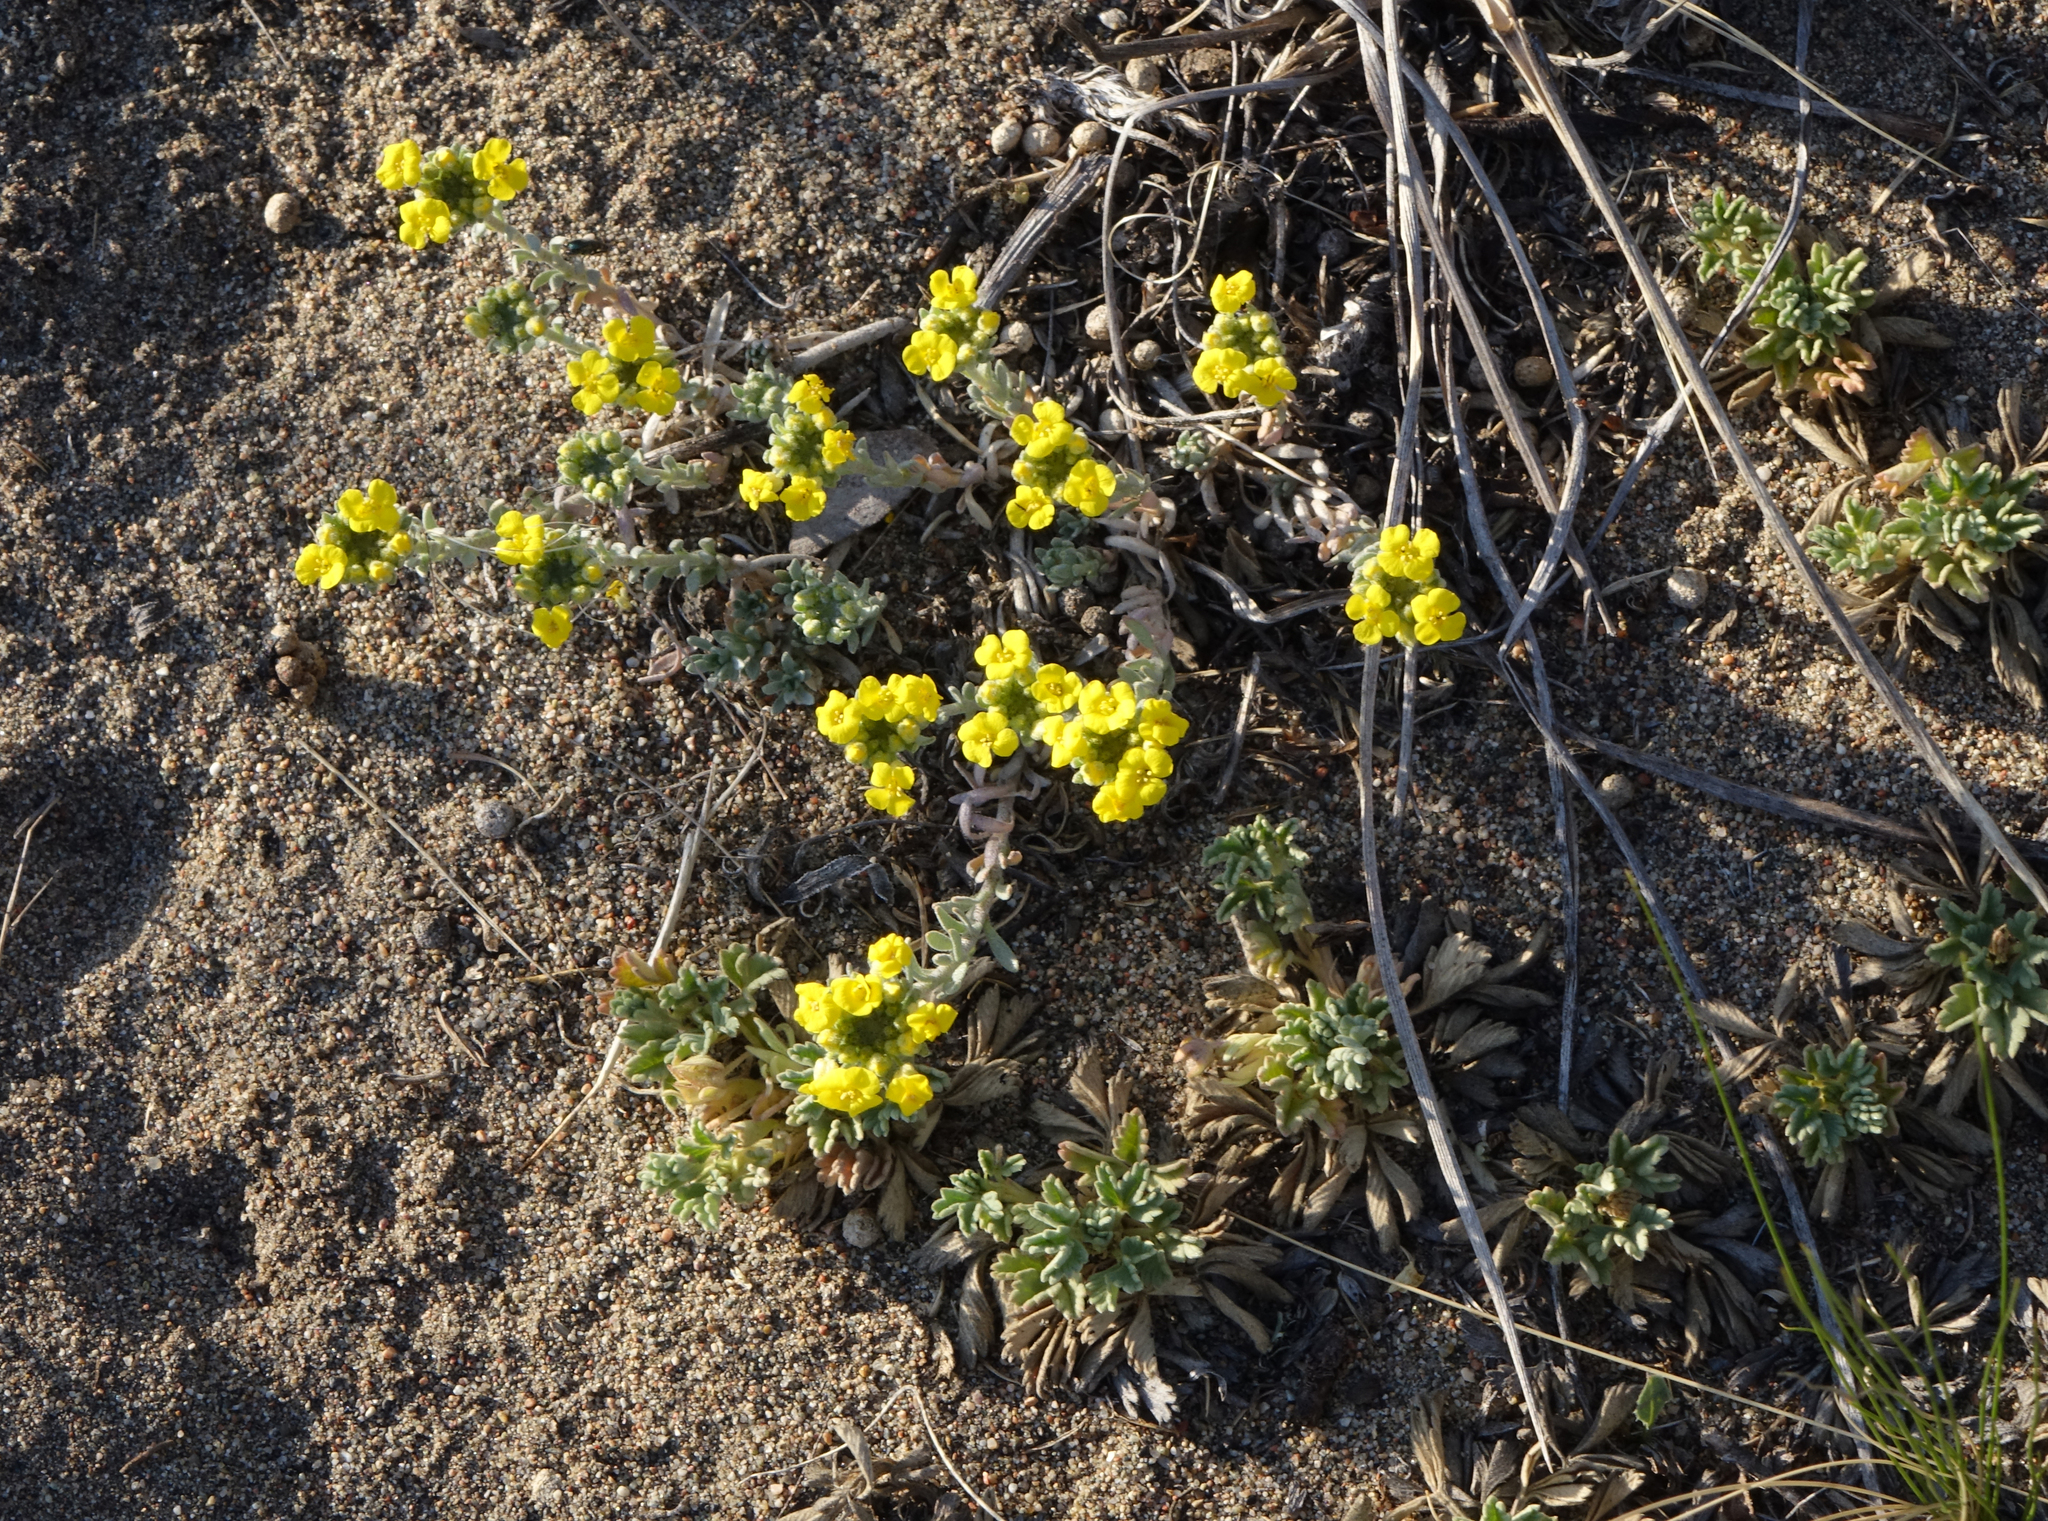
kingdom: Plantae
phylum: Tracheophyta
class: Magnoliopsida
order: Brassicales
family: Brassicaceae
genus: Odontarrhena
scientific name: Odontarrhena obovata
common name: American alyssum
